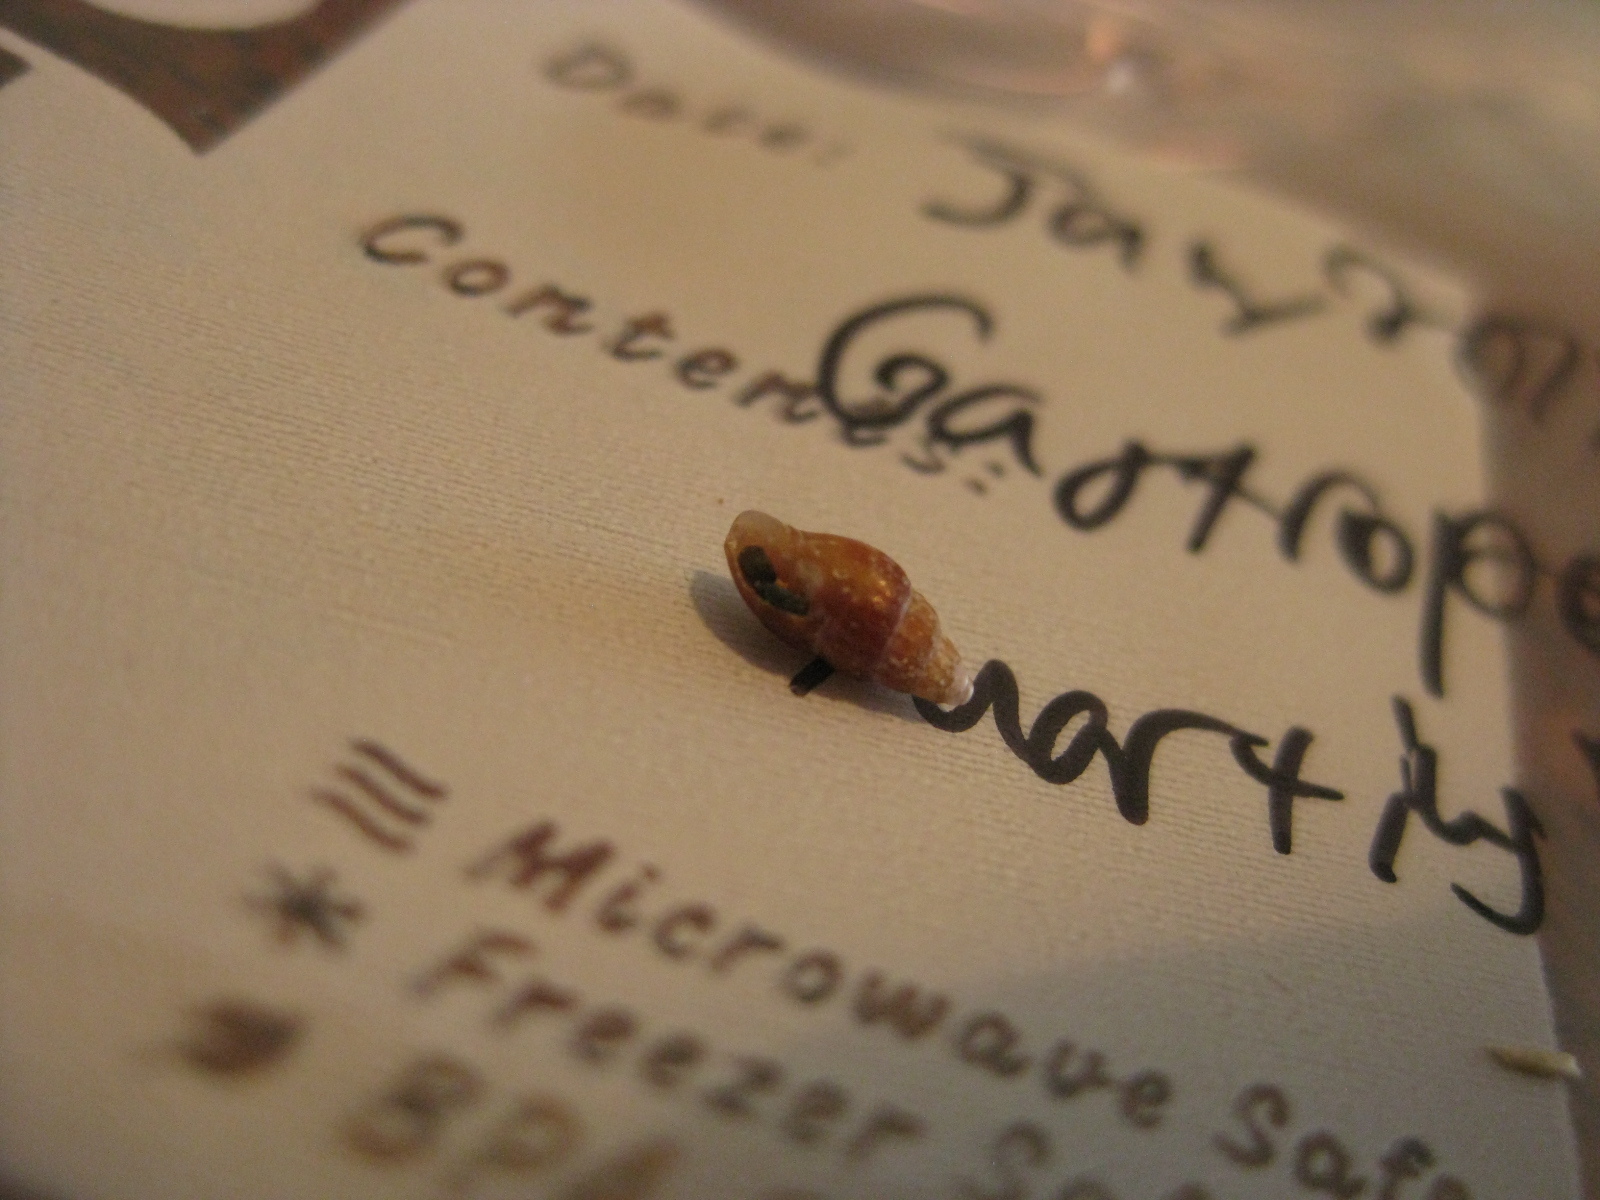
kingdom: Animalia
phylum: Mollusca
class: Gastropoda
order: Neogastropoda
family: Costellariidae
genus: Austromitra
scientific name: Austromitra rubiginosa
